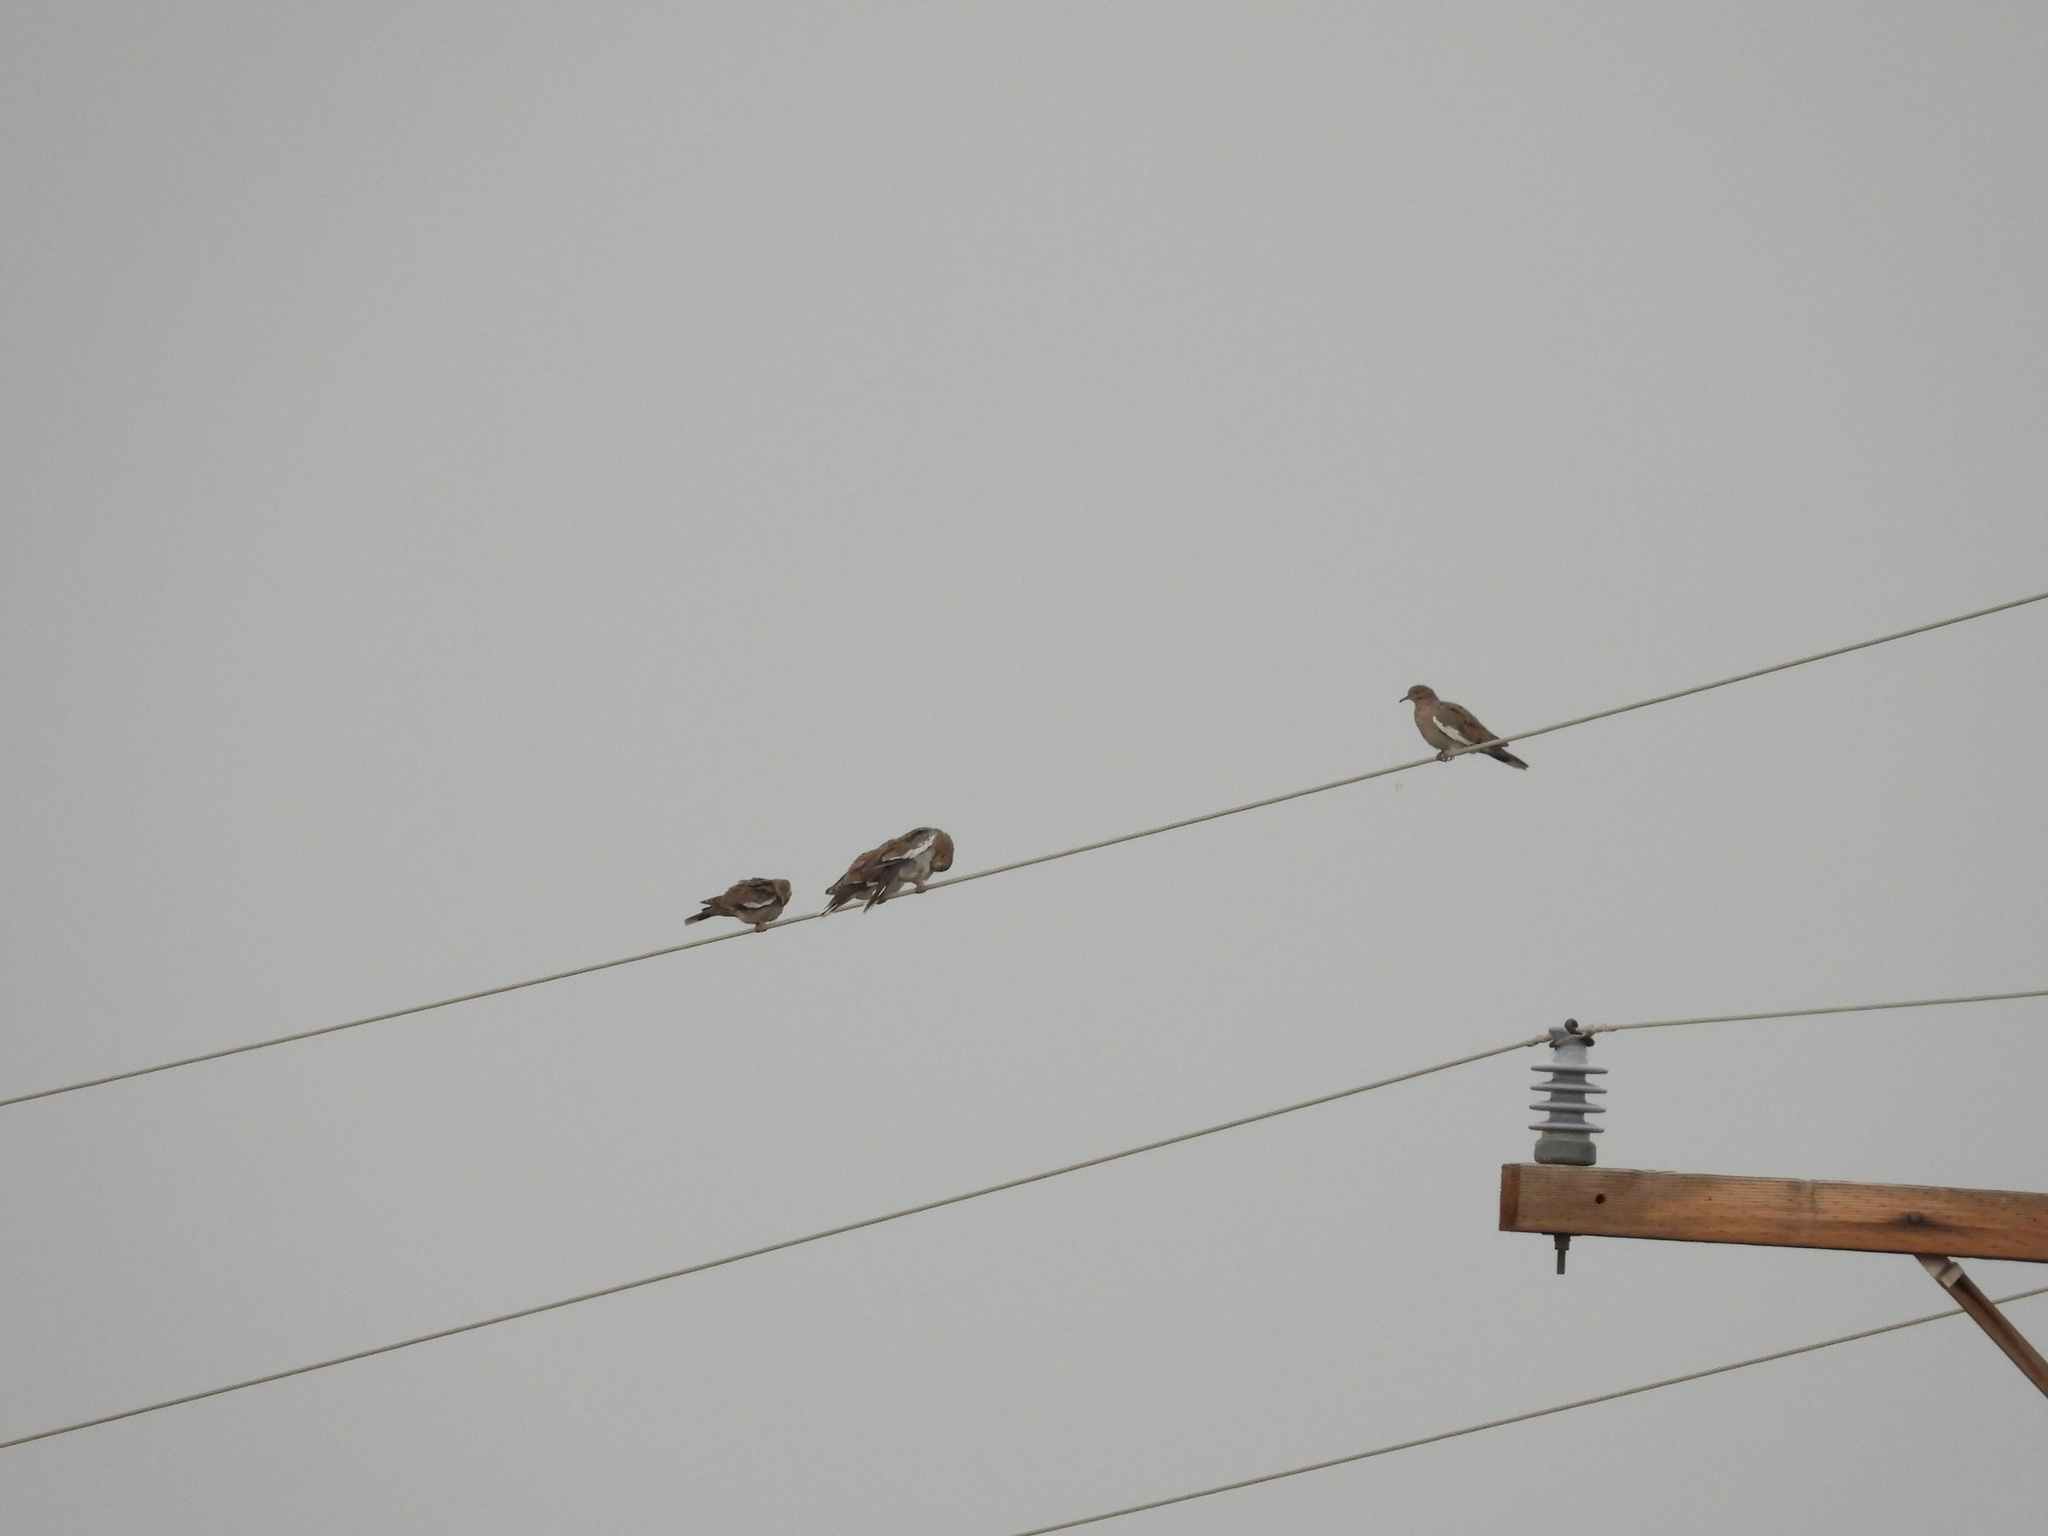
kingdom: Animalia
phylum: Chordata
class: Aves
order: Columbiformes
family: Columbidae
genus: Zenaida
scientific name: Zenaida asiatica
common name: White-winged dove
